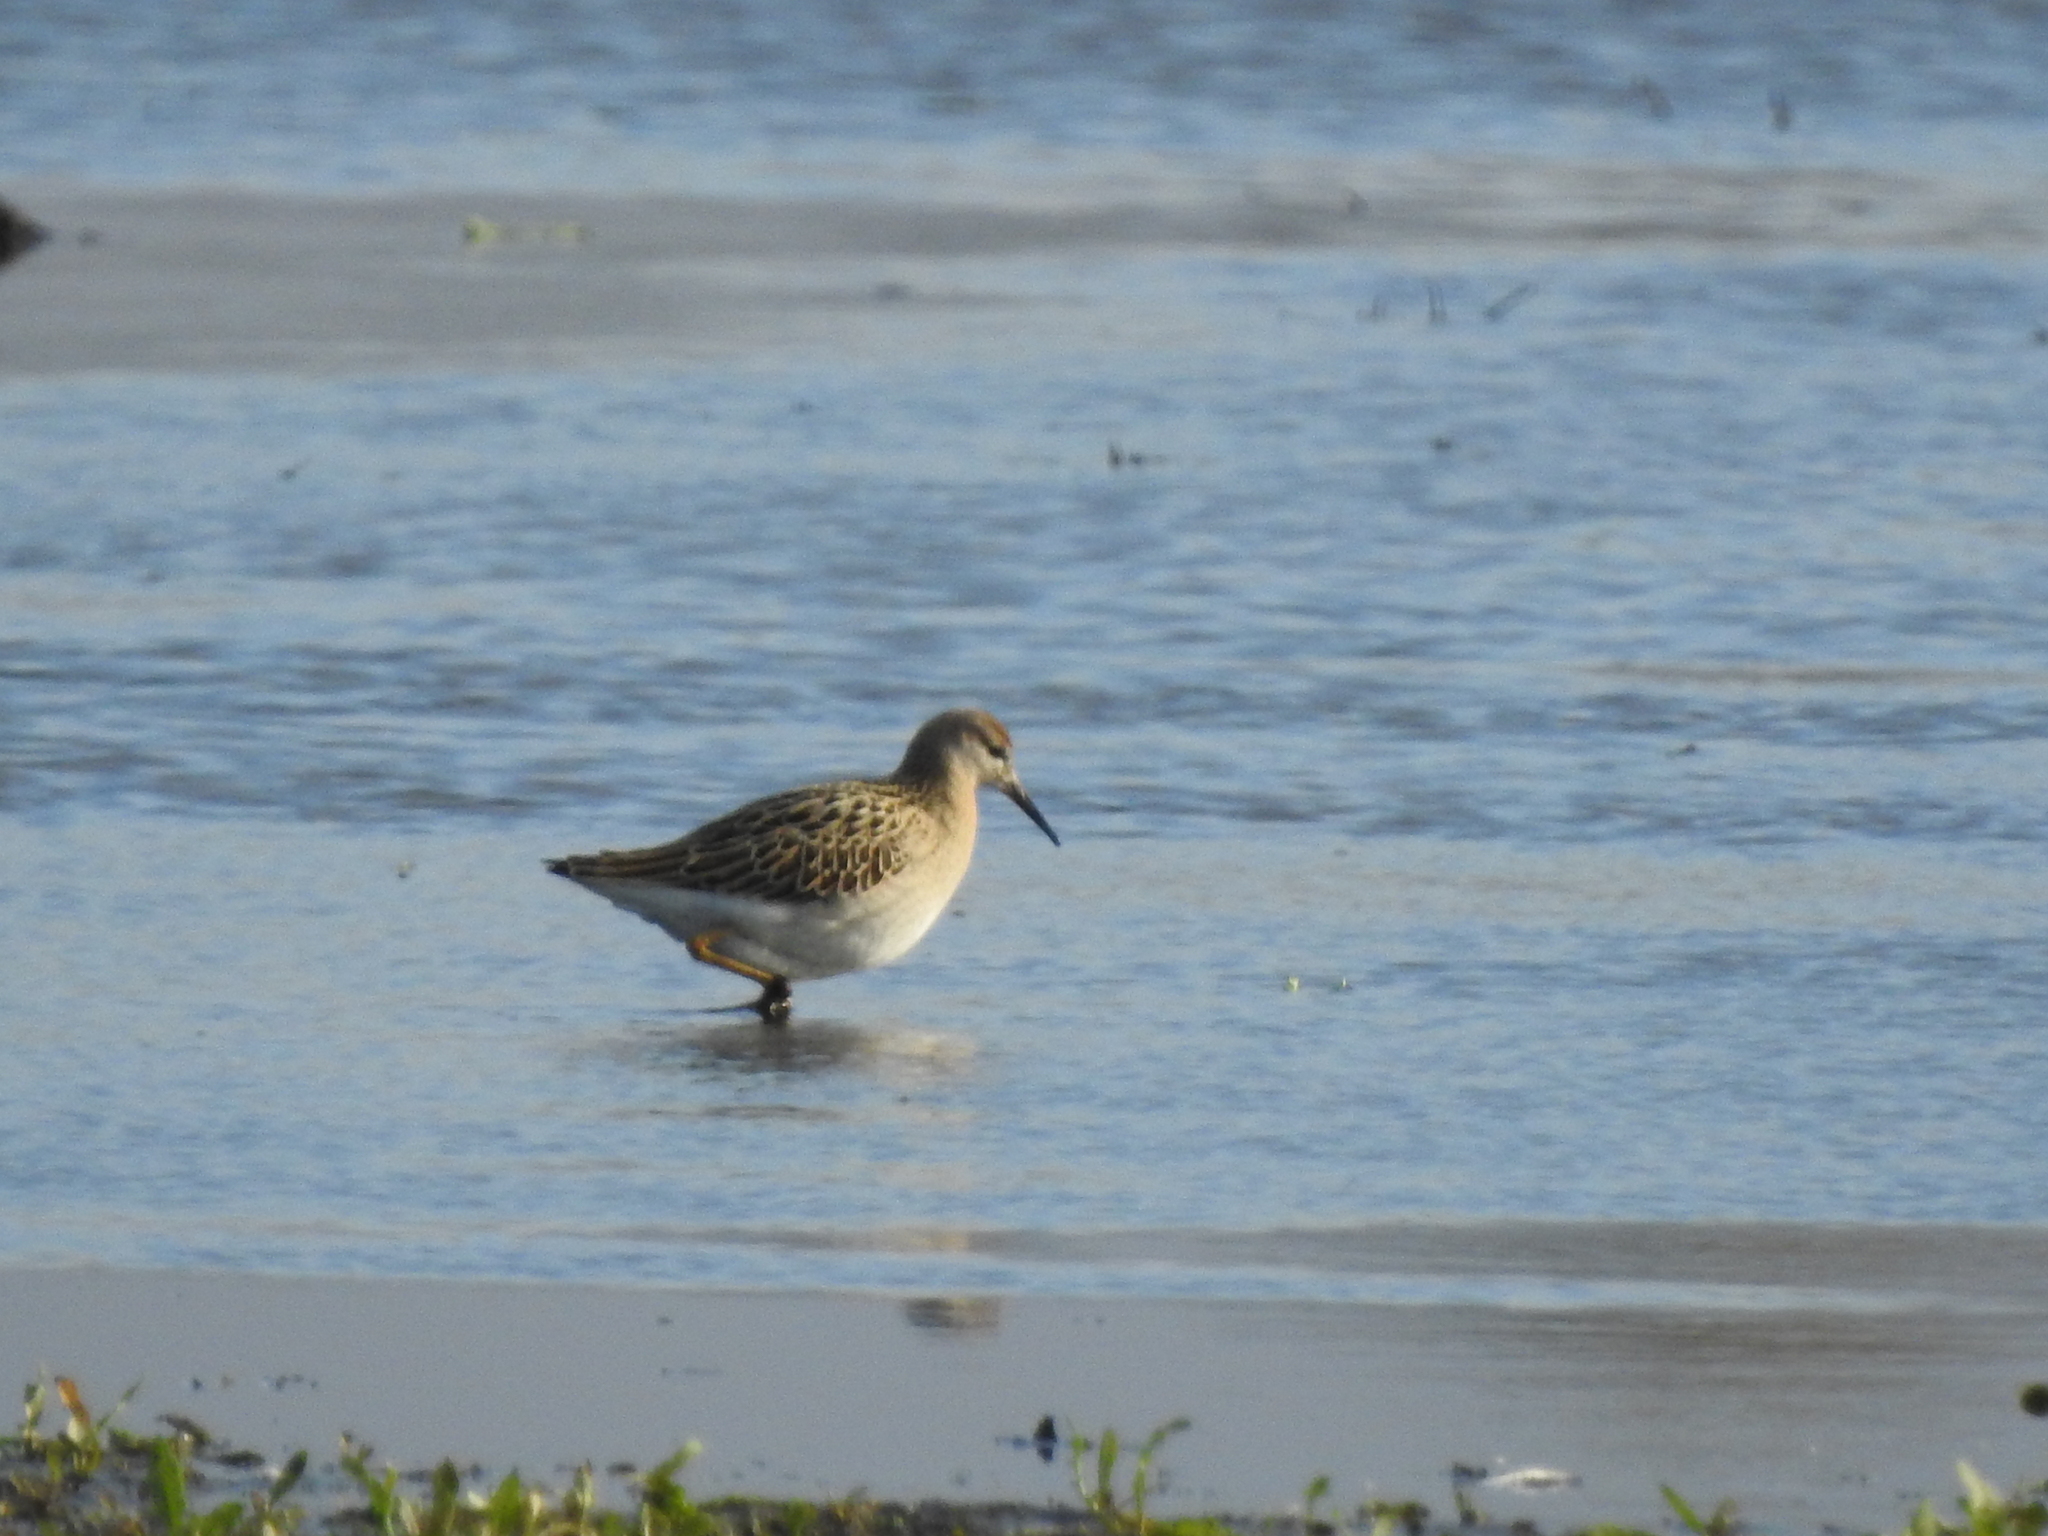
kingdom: Animalia
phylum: Chordata
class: Aves
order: Charadriiformes
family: Scolopacidae
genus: Calidris
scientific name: Calidris pugnax
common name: Ruff
